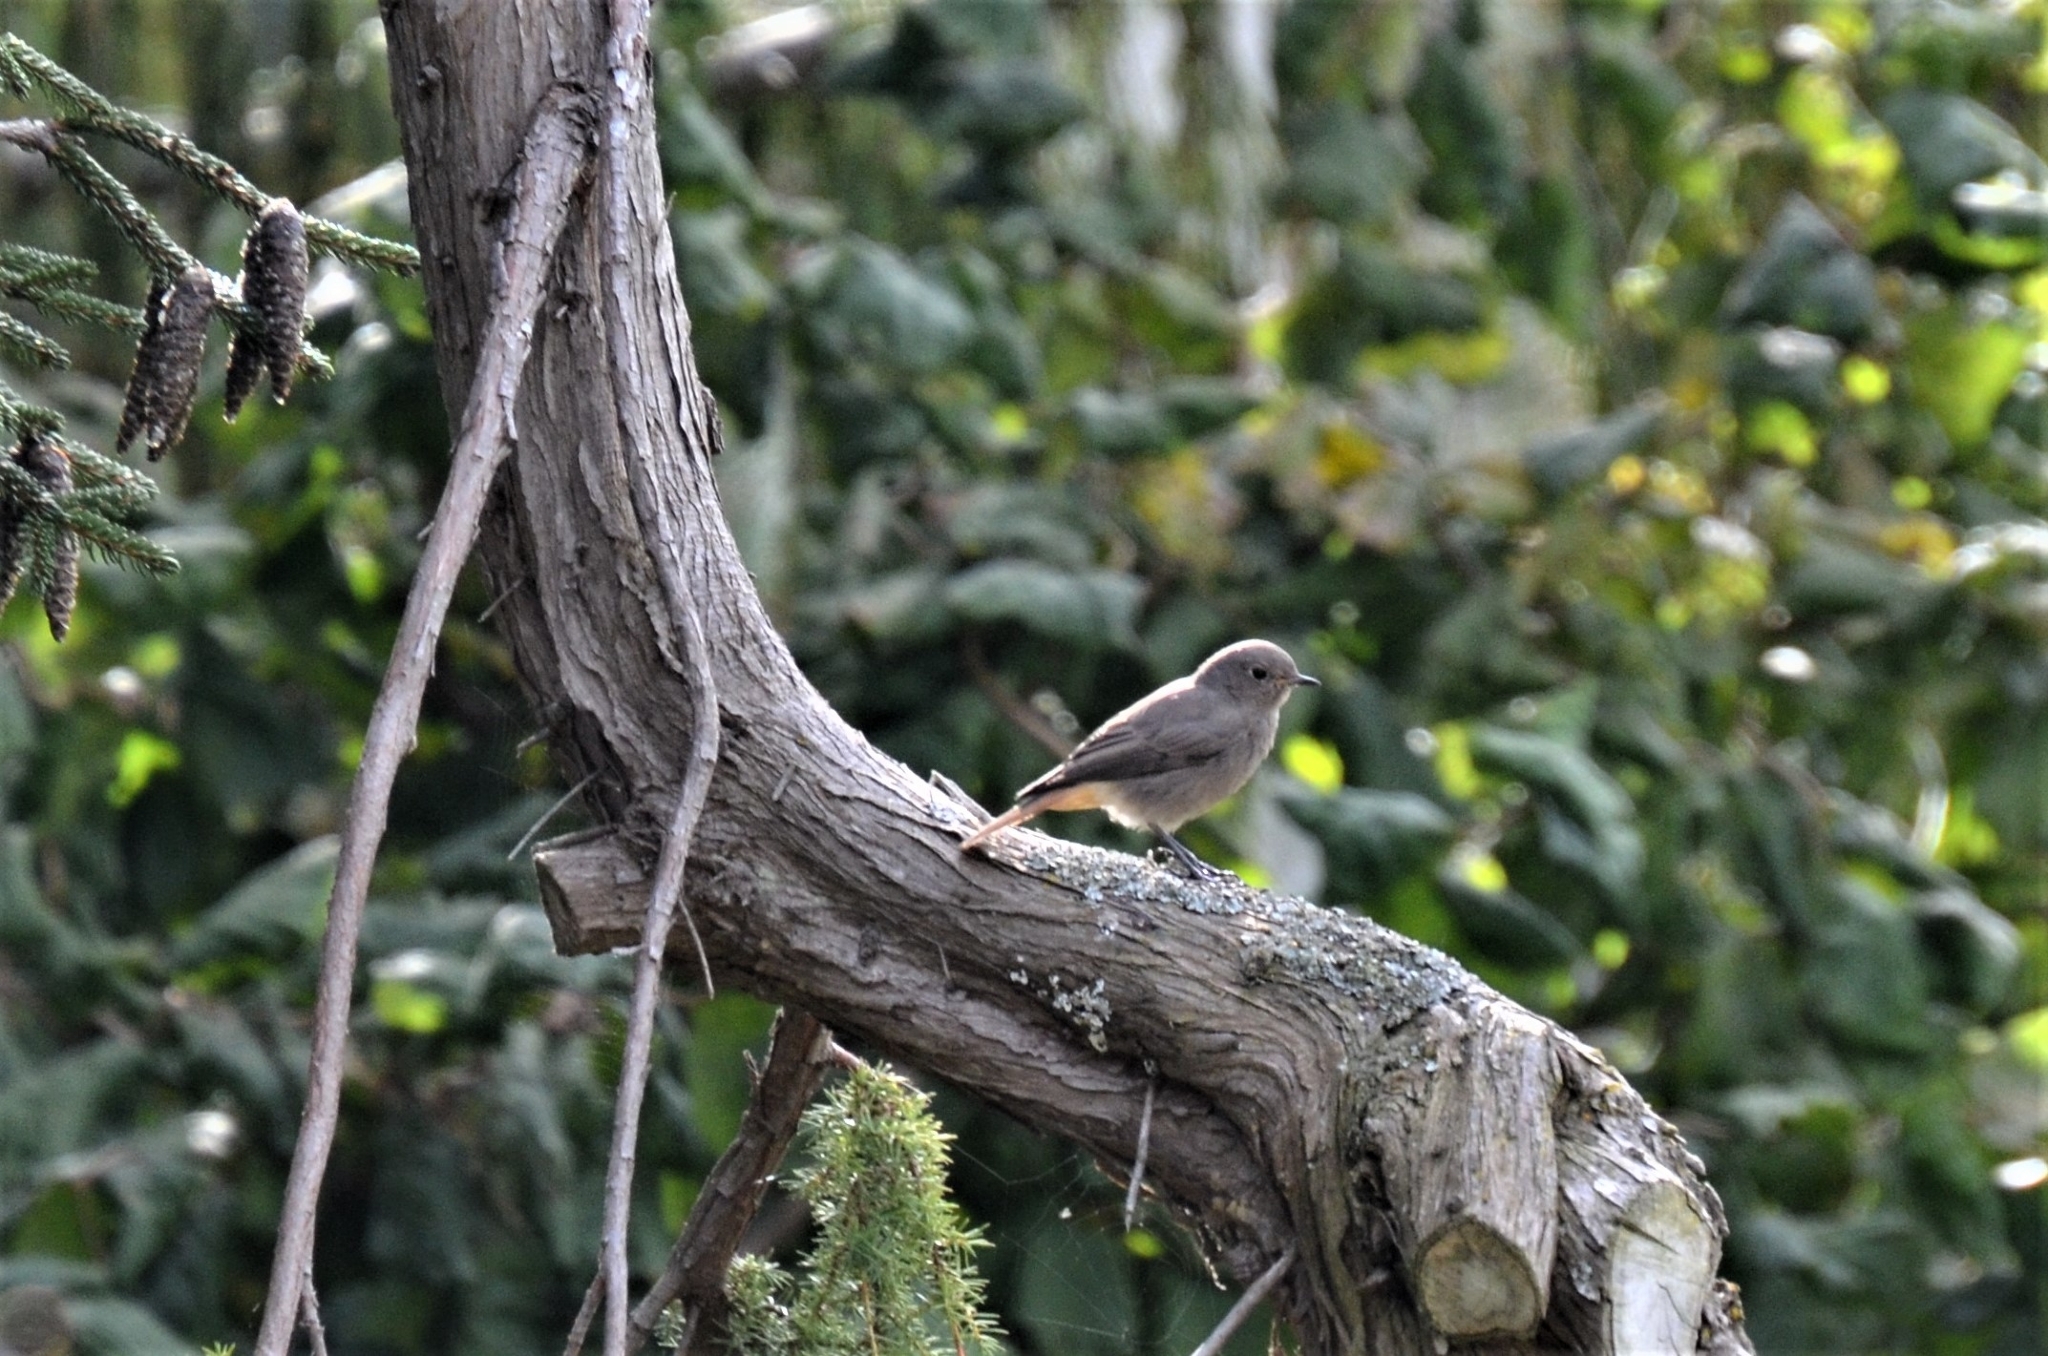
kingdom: Animalia
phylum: Chordata
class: Aves
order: Passeriformes
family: Muscicapidae
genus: Phoenicurus
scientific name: Phoenicurus ochruros
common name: Black redstart
